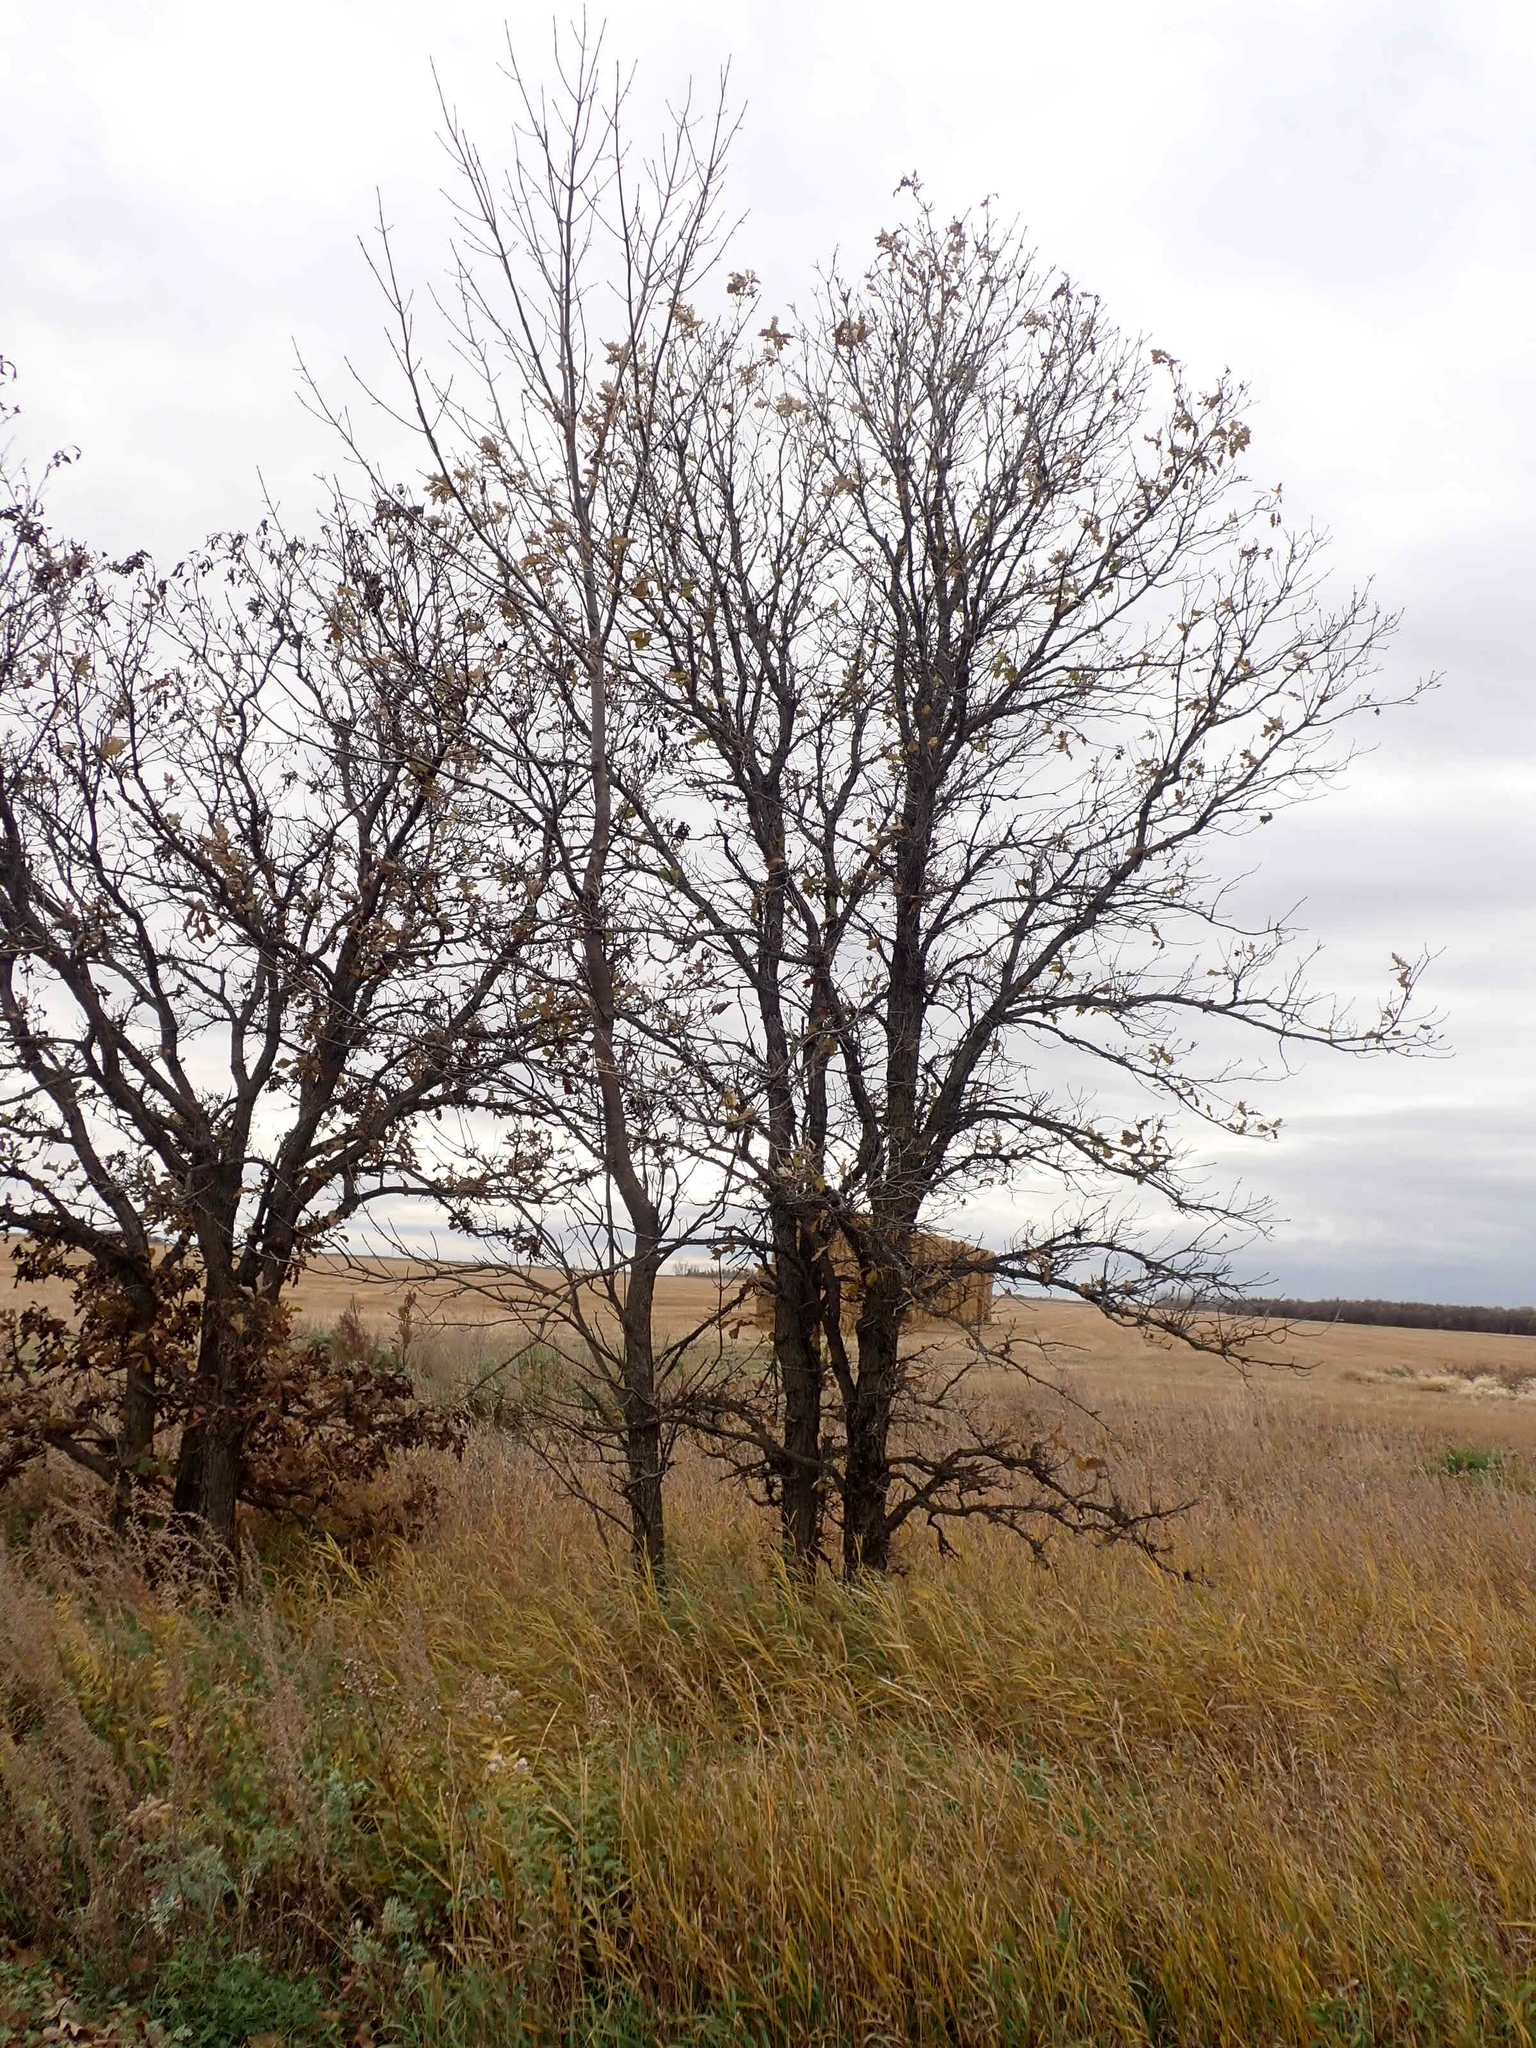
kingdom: Plantae
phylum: Tracheophyta
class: Magnoliopsida
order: Fagales
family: Fagaceae
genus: Quercus
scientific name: Quercus macrocarpa
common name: Bur oak
